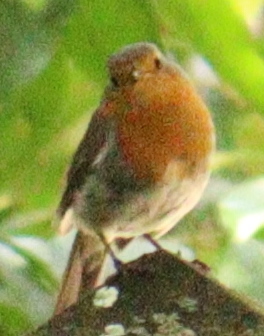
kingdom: Animalia
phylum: Chordata
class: Aves
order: Passeriformes
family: Muscicapidae
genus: Erithacus
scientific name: Erithacus rubecula
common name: European robin
